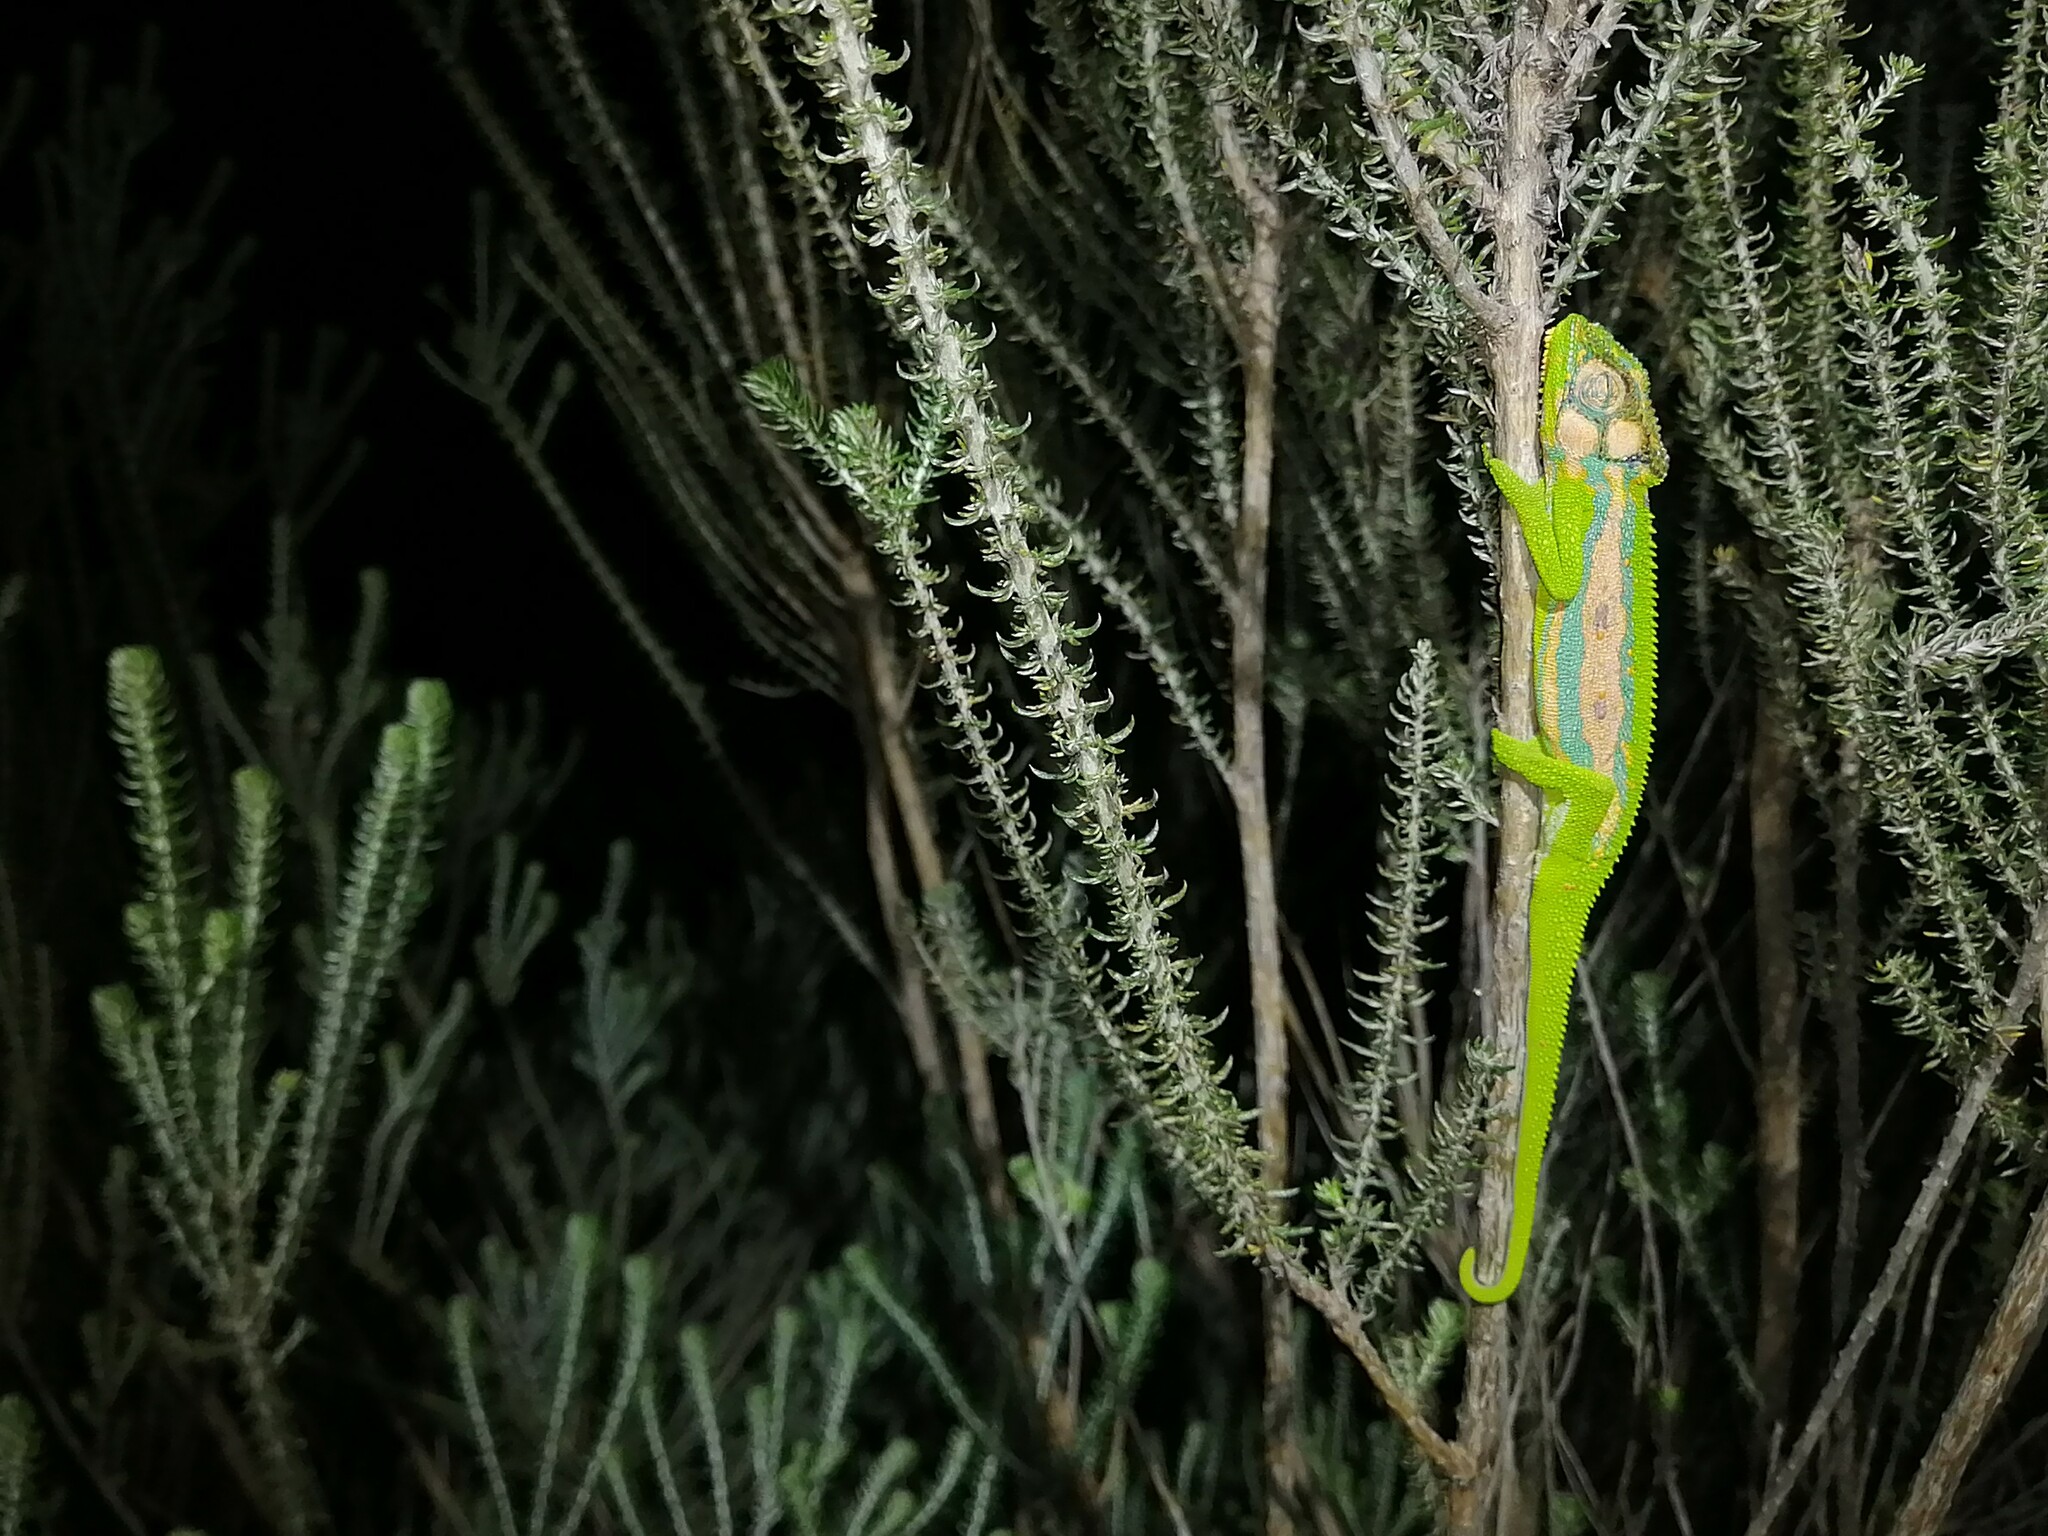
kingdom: Animalia
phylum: Chordata
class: Squamata
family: Chamaeleonidae
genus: Bradypodion
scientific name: Bradypodion pumilum
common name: Cape dwarf chameleon
